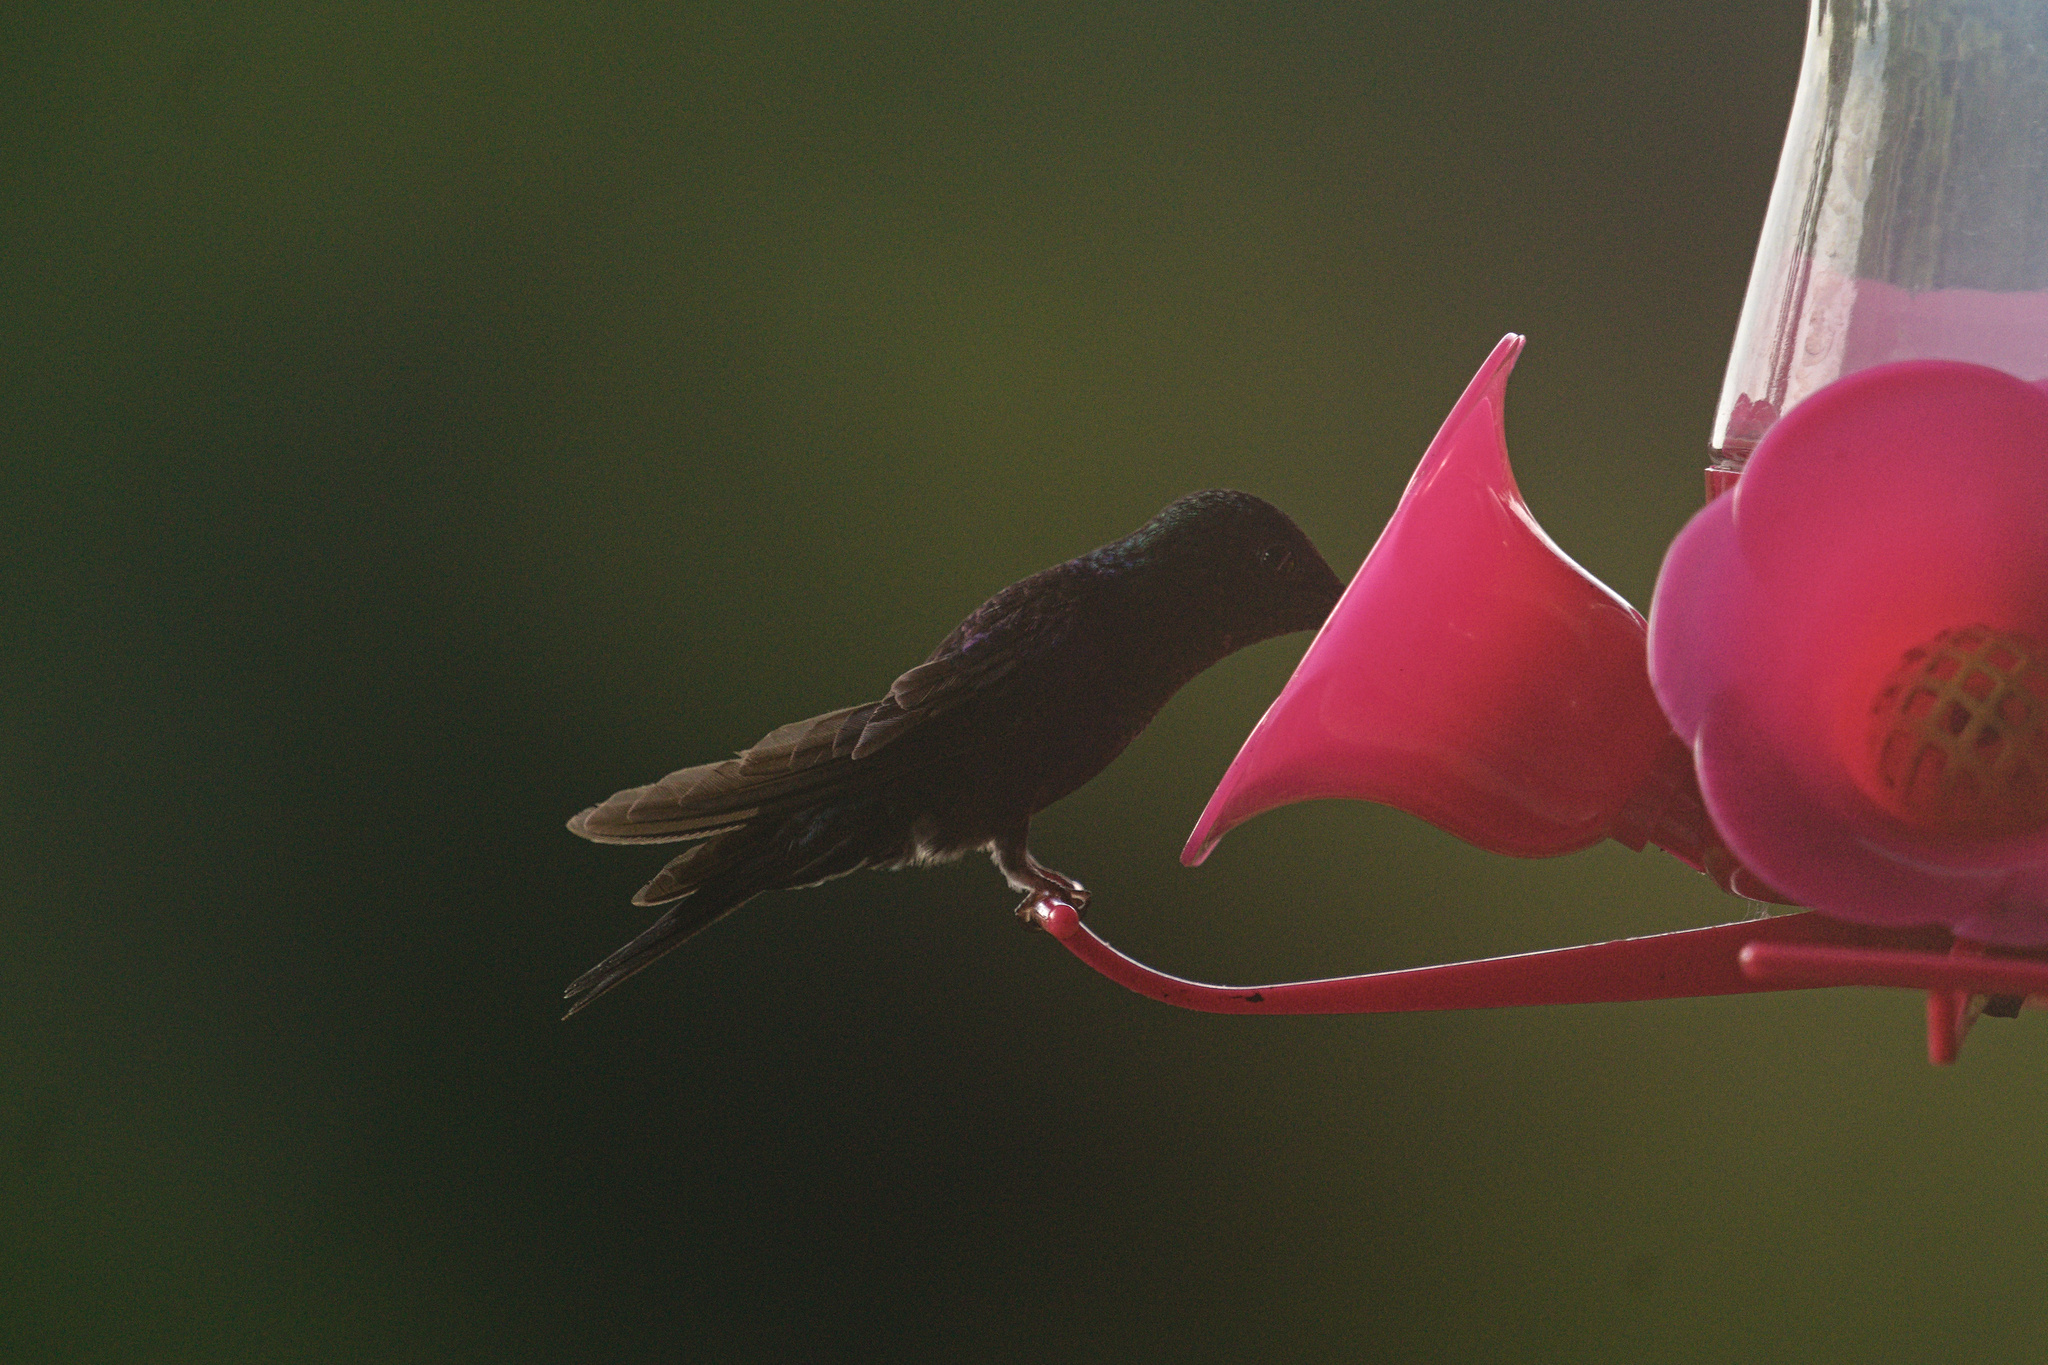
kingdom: Animalia
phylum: Chordata
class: Aves
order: Apodiformes
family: Trochilidae
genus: Thalurania
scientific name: Thalurania colombica
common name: Crowned woodnymph
